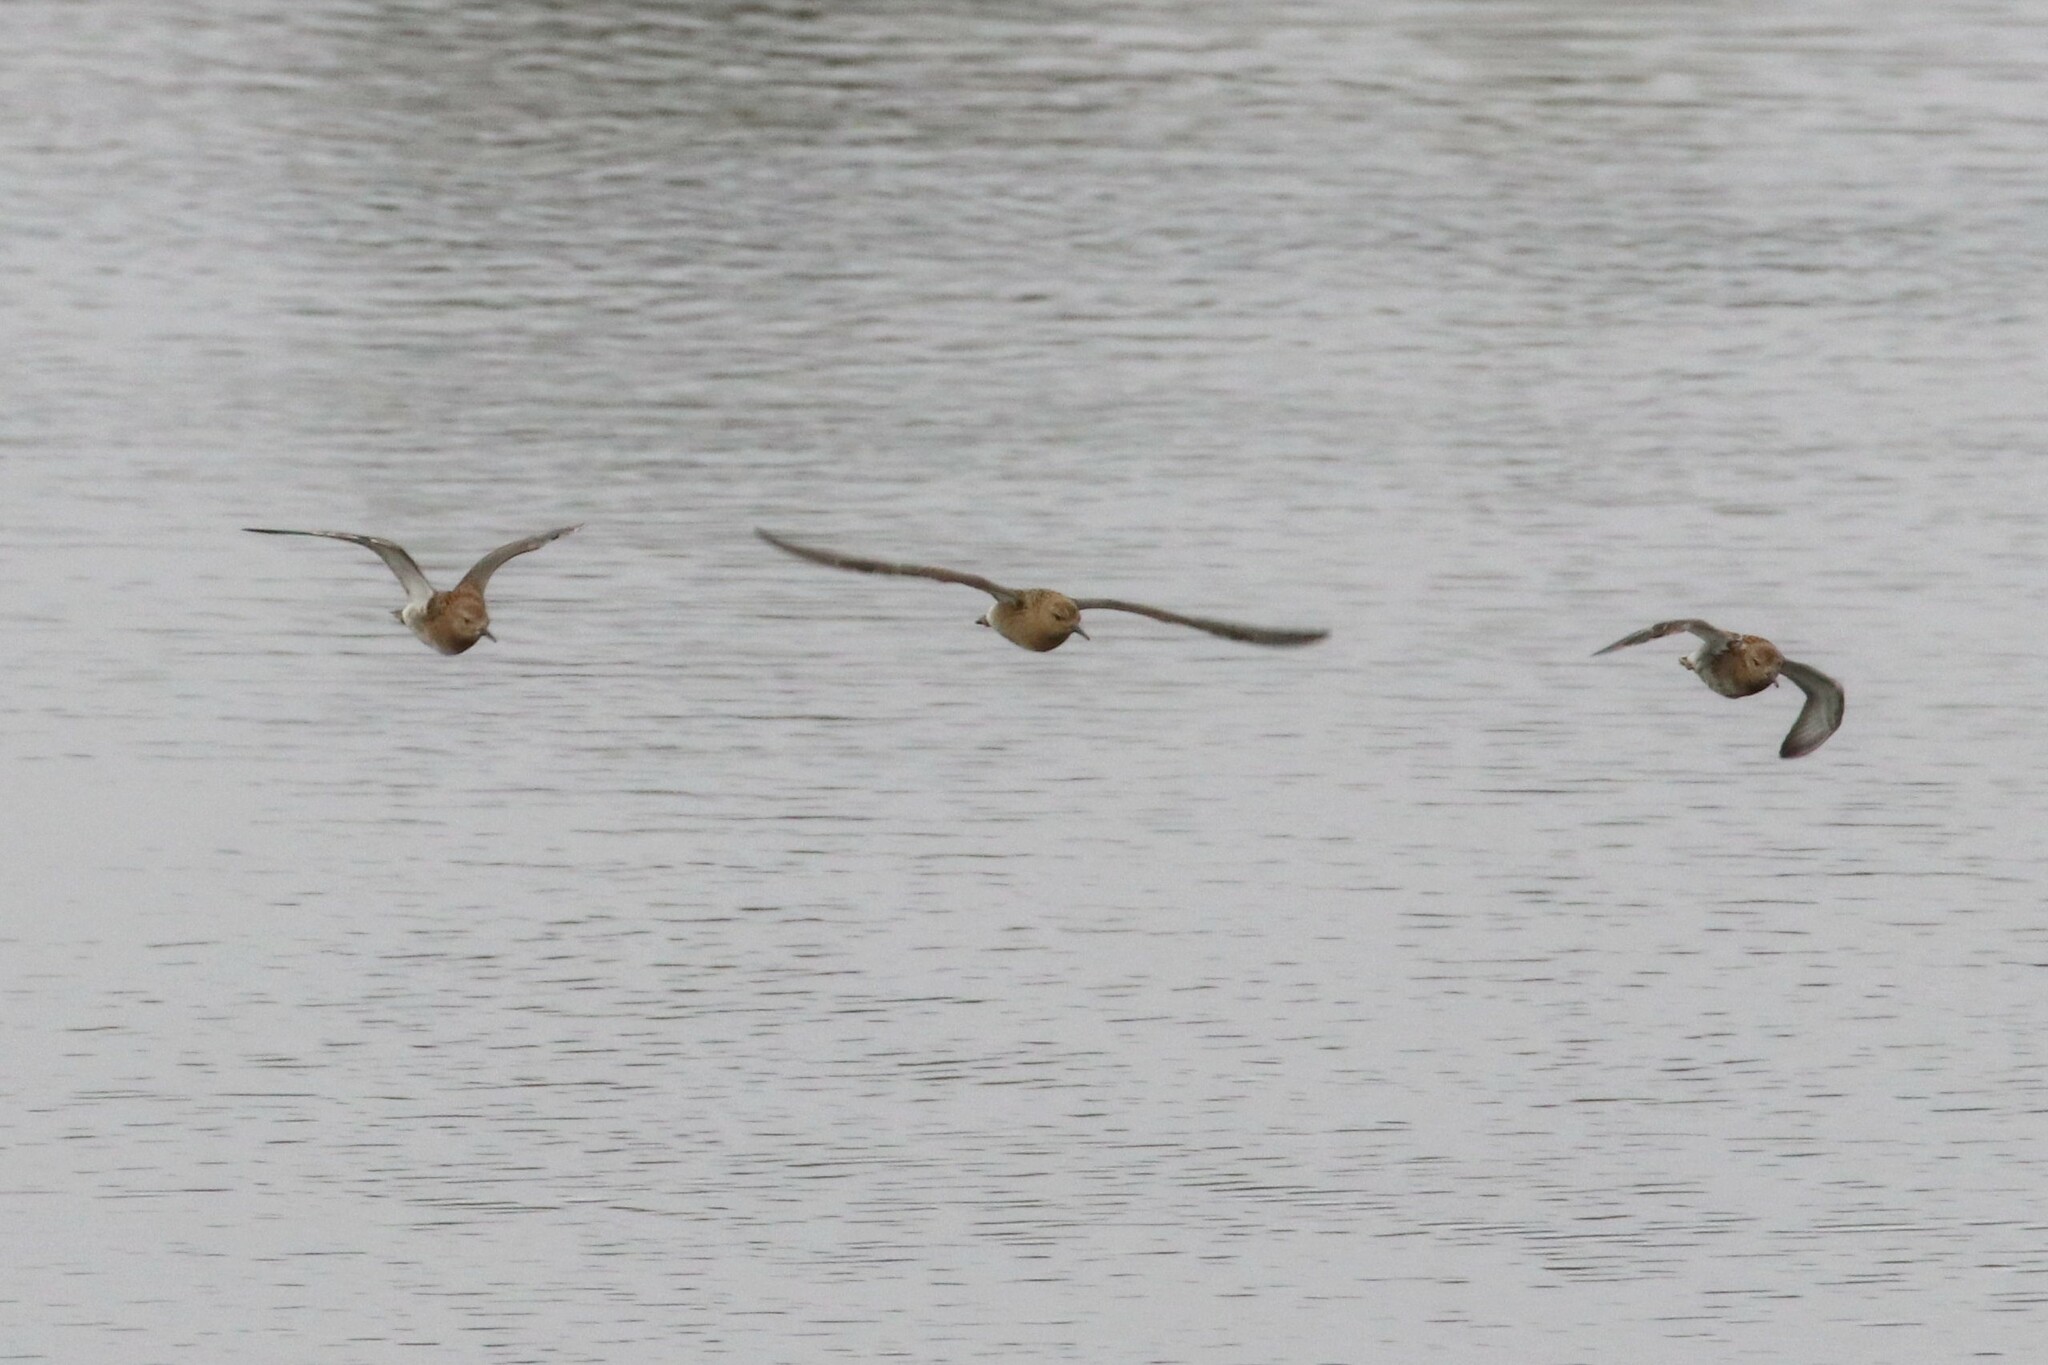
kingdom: Animalia
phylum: Chordata
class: Aves
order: Charadriiformes
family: Scolopacidae
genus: Calidris
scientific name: Calidris pugnax
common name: Ruff
